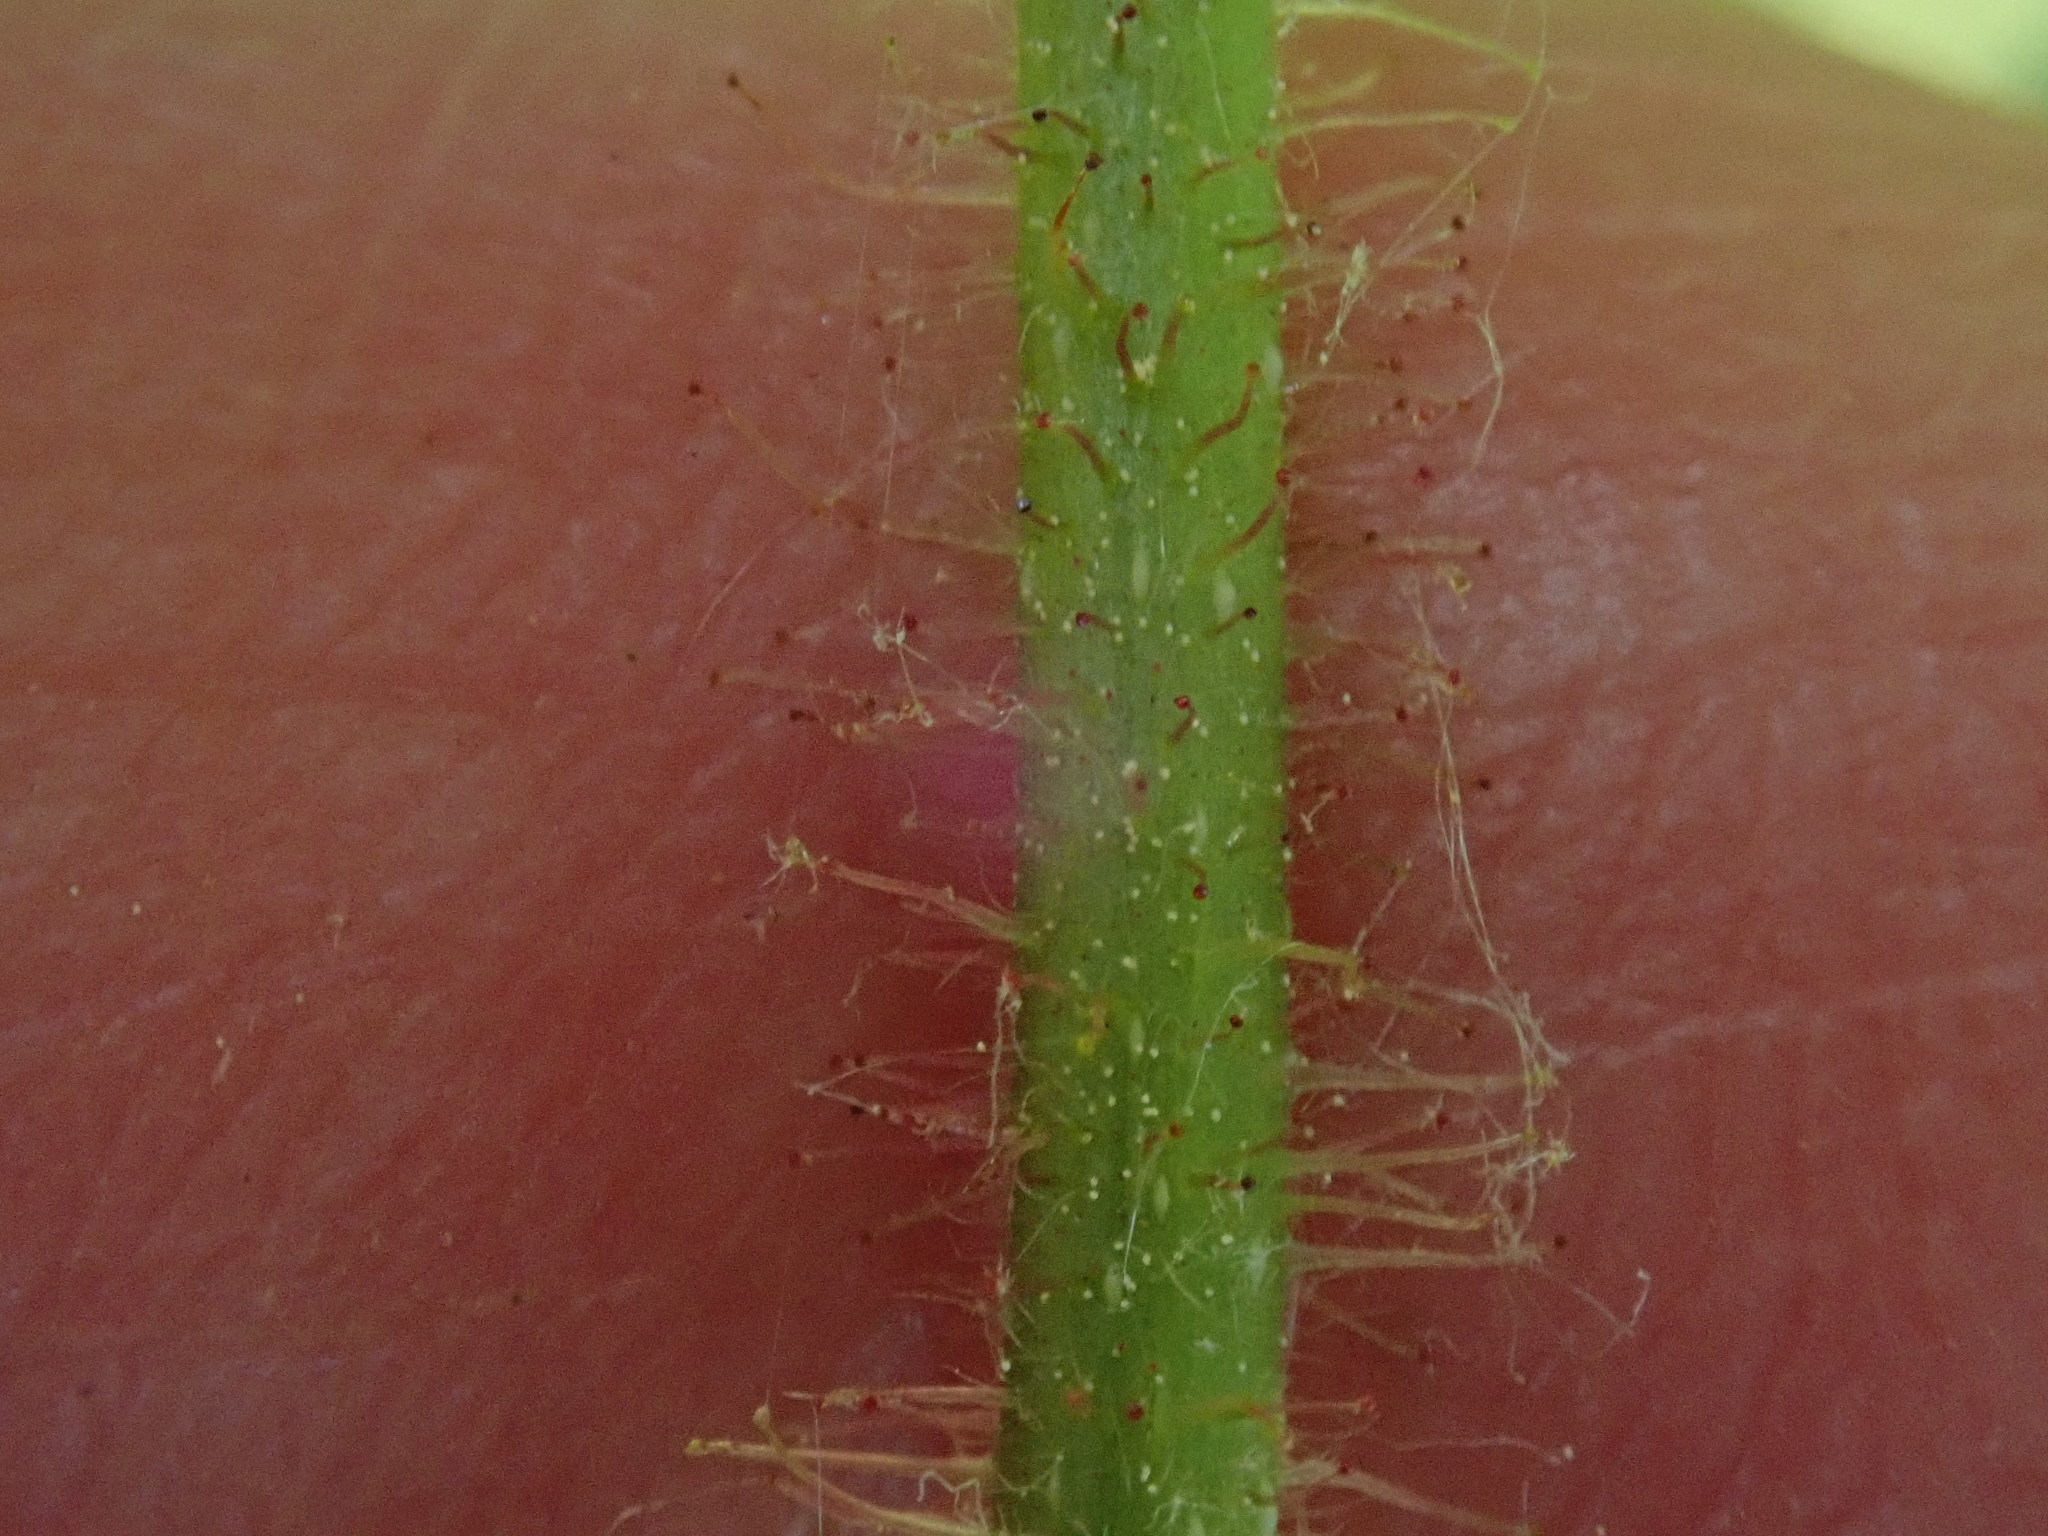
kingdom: Plantae
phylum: Tracheophyta
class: Magnoliopsida
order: Fagales
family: Betulaceae
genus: Corylus
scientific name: Corylus americana
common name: American hazel
